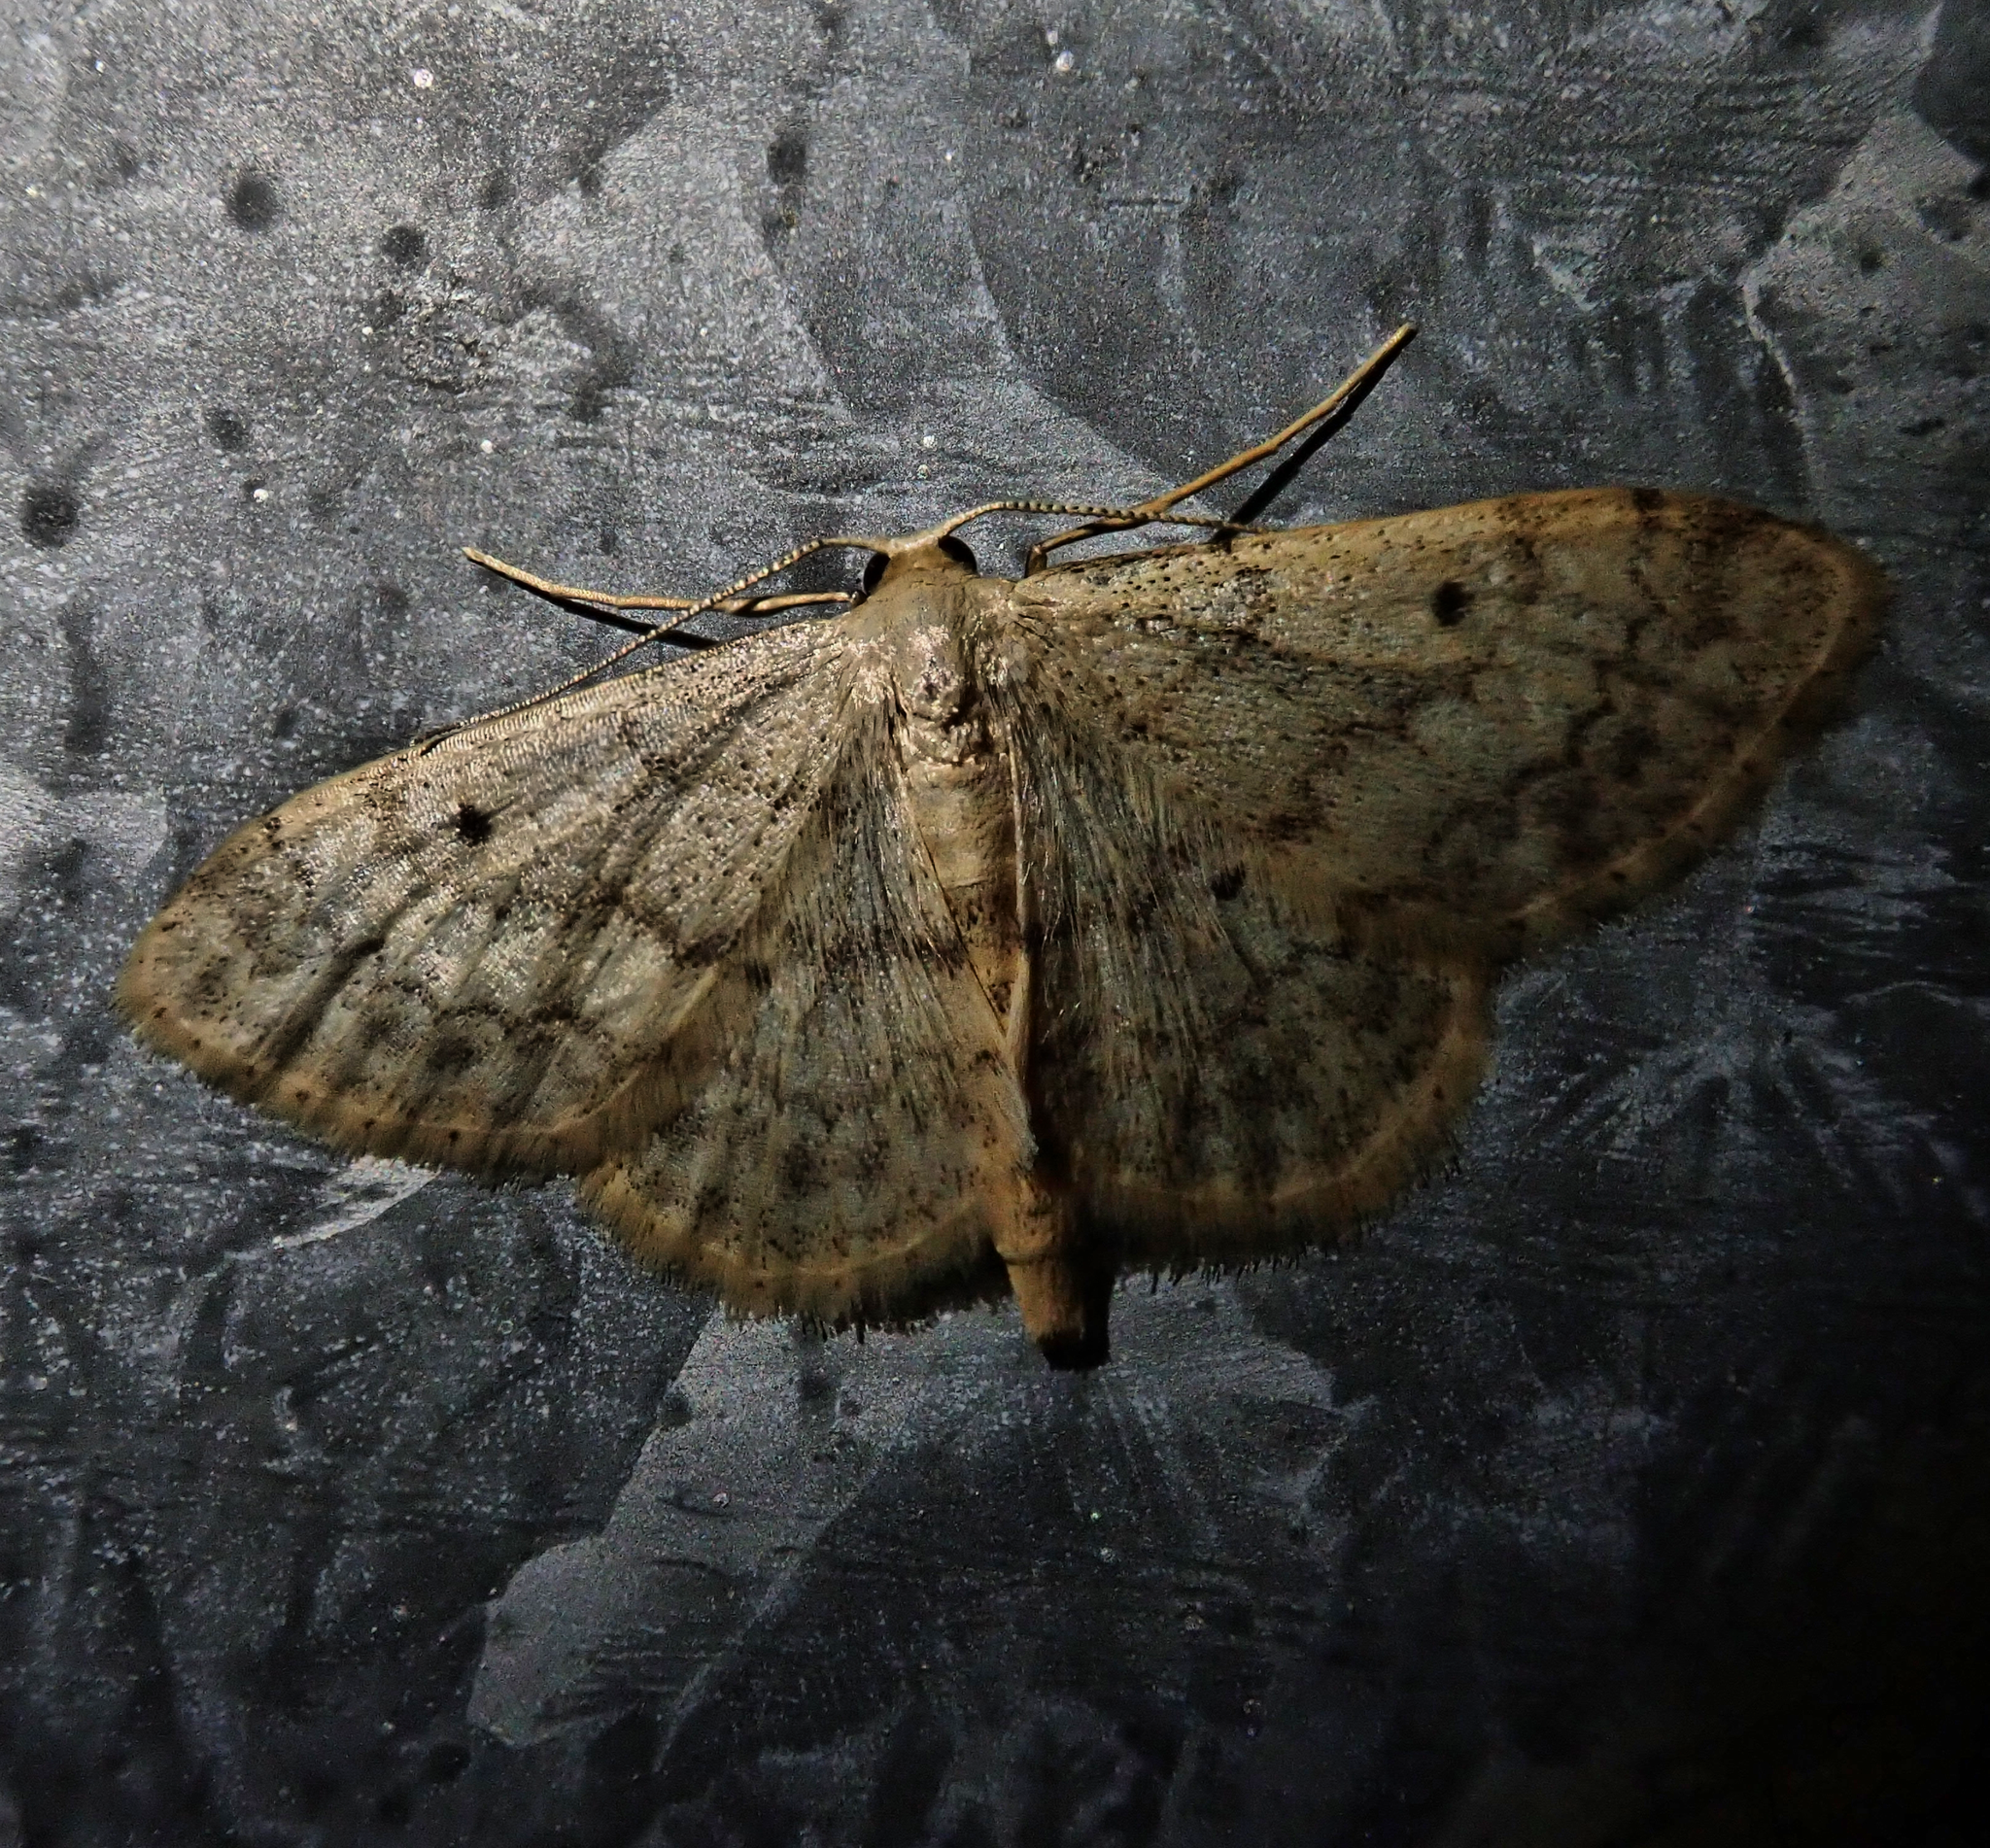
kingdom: Animalia
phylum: Arthropoda
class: Insecta
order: Lepidoptera
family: Geometridae
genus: Idaea
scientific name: Idaea biselata
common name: Small fan-footed wave
